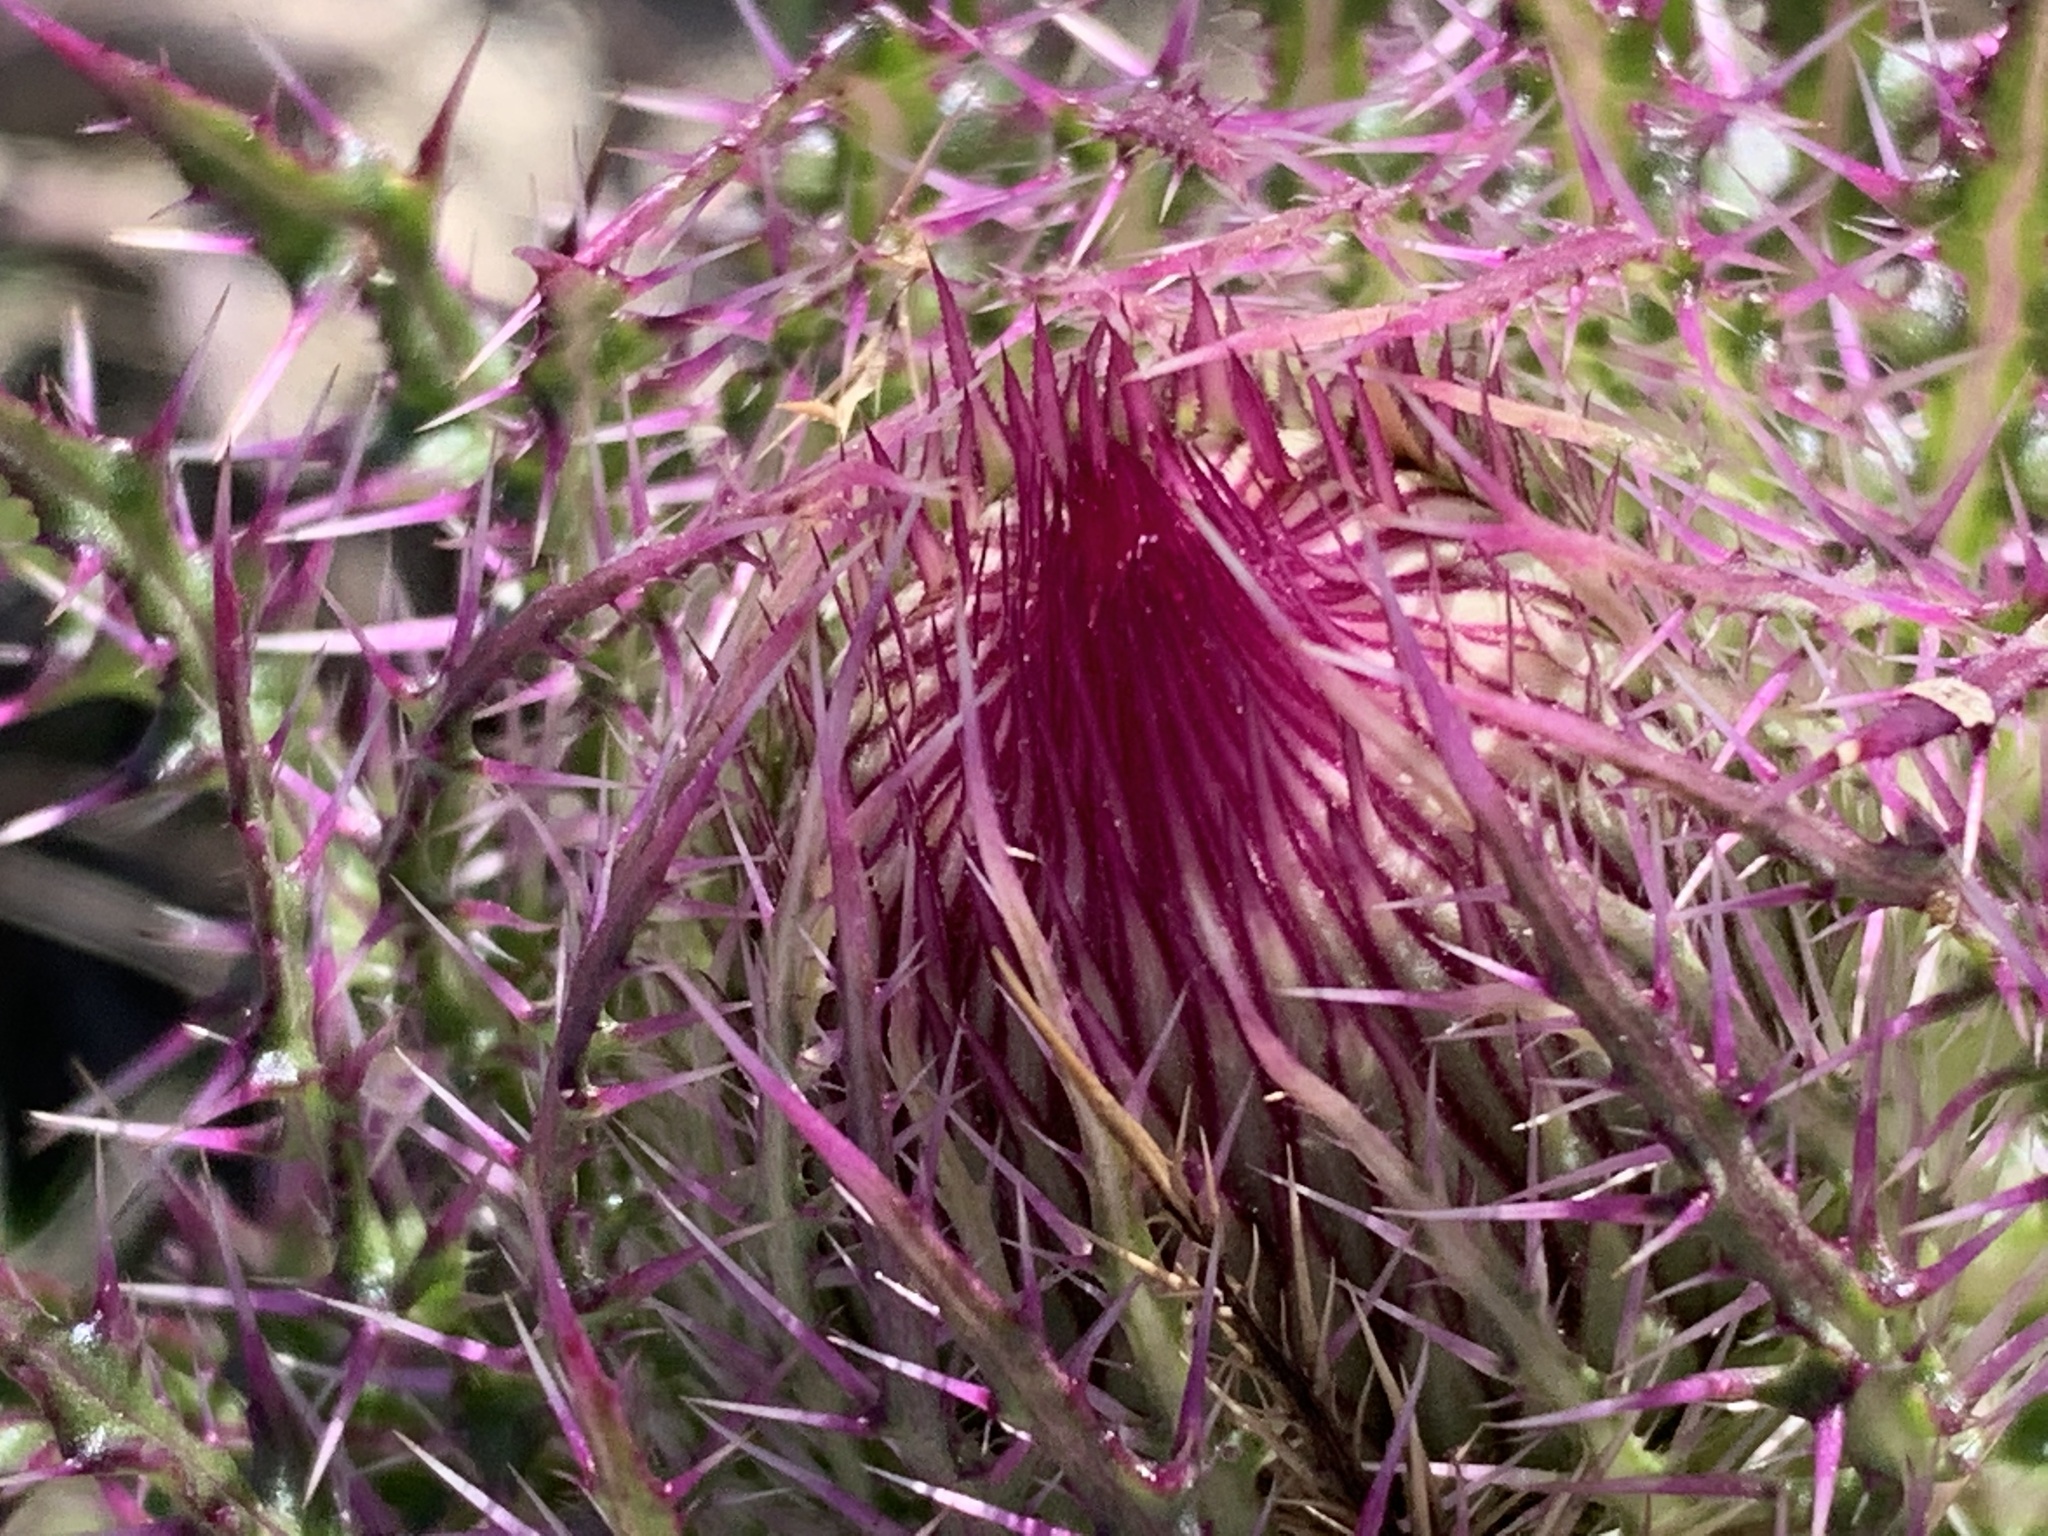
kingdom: Plantae
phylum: Tracheophyta
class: Magnoliopsida
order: Asterales
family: Asteraceae
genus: Cirsium
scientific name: Cirsium horridulum
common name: Bristly thistle
